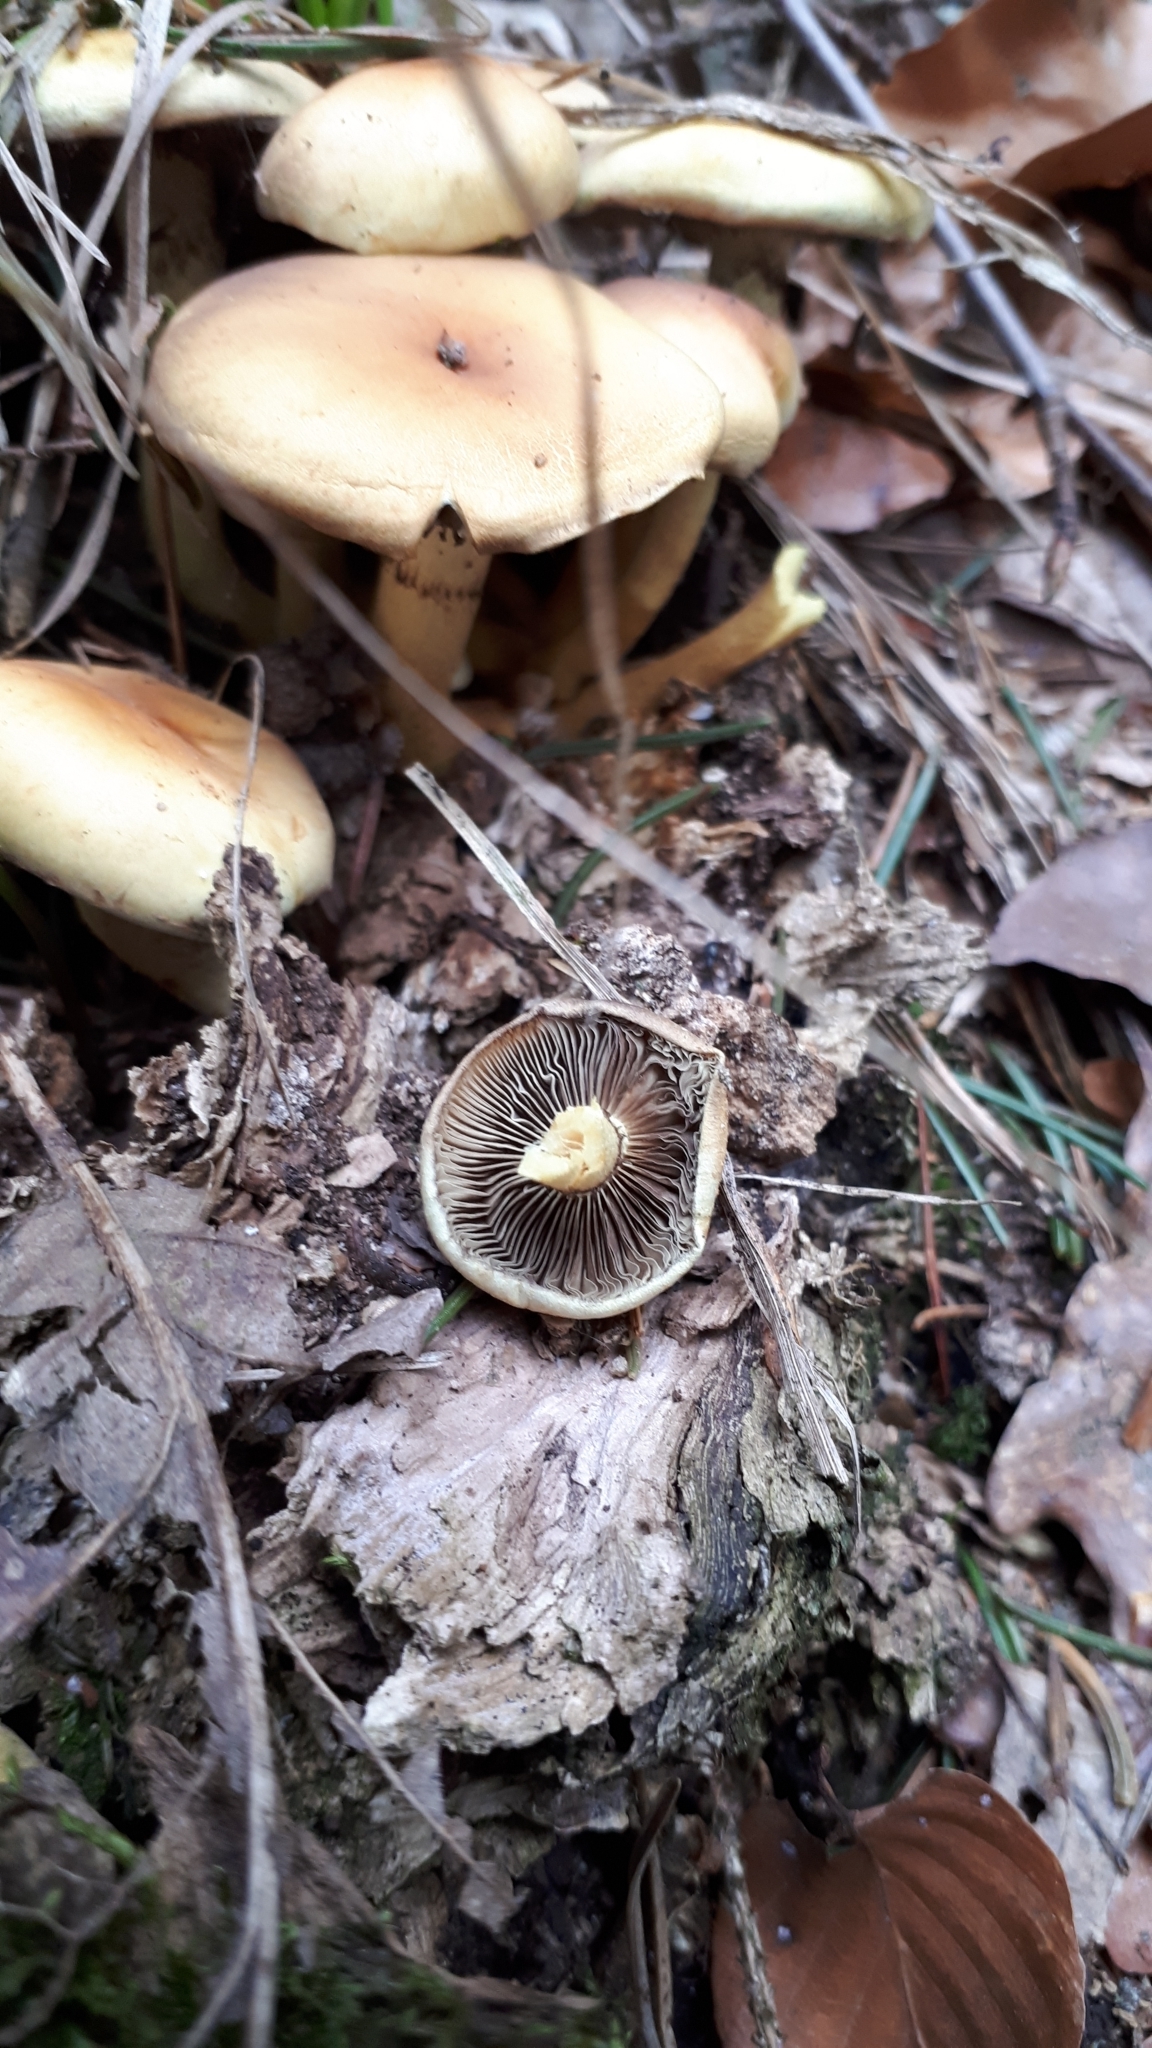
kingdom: Fungi
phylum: Basidiomycota
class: Agaricomycetes
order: Agaricales
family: Strophariaceae
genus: Hypholoma
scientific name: Hypholoma fasciculare
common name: Sulphur tuft
